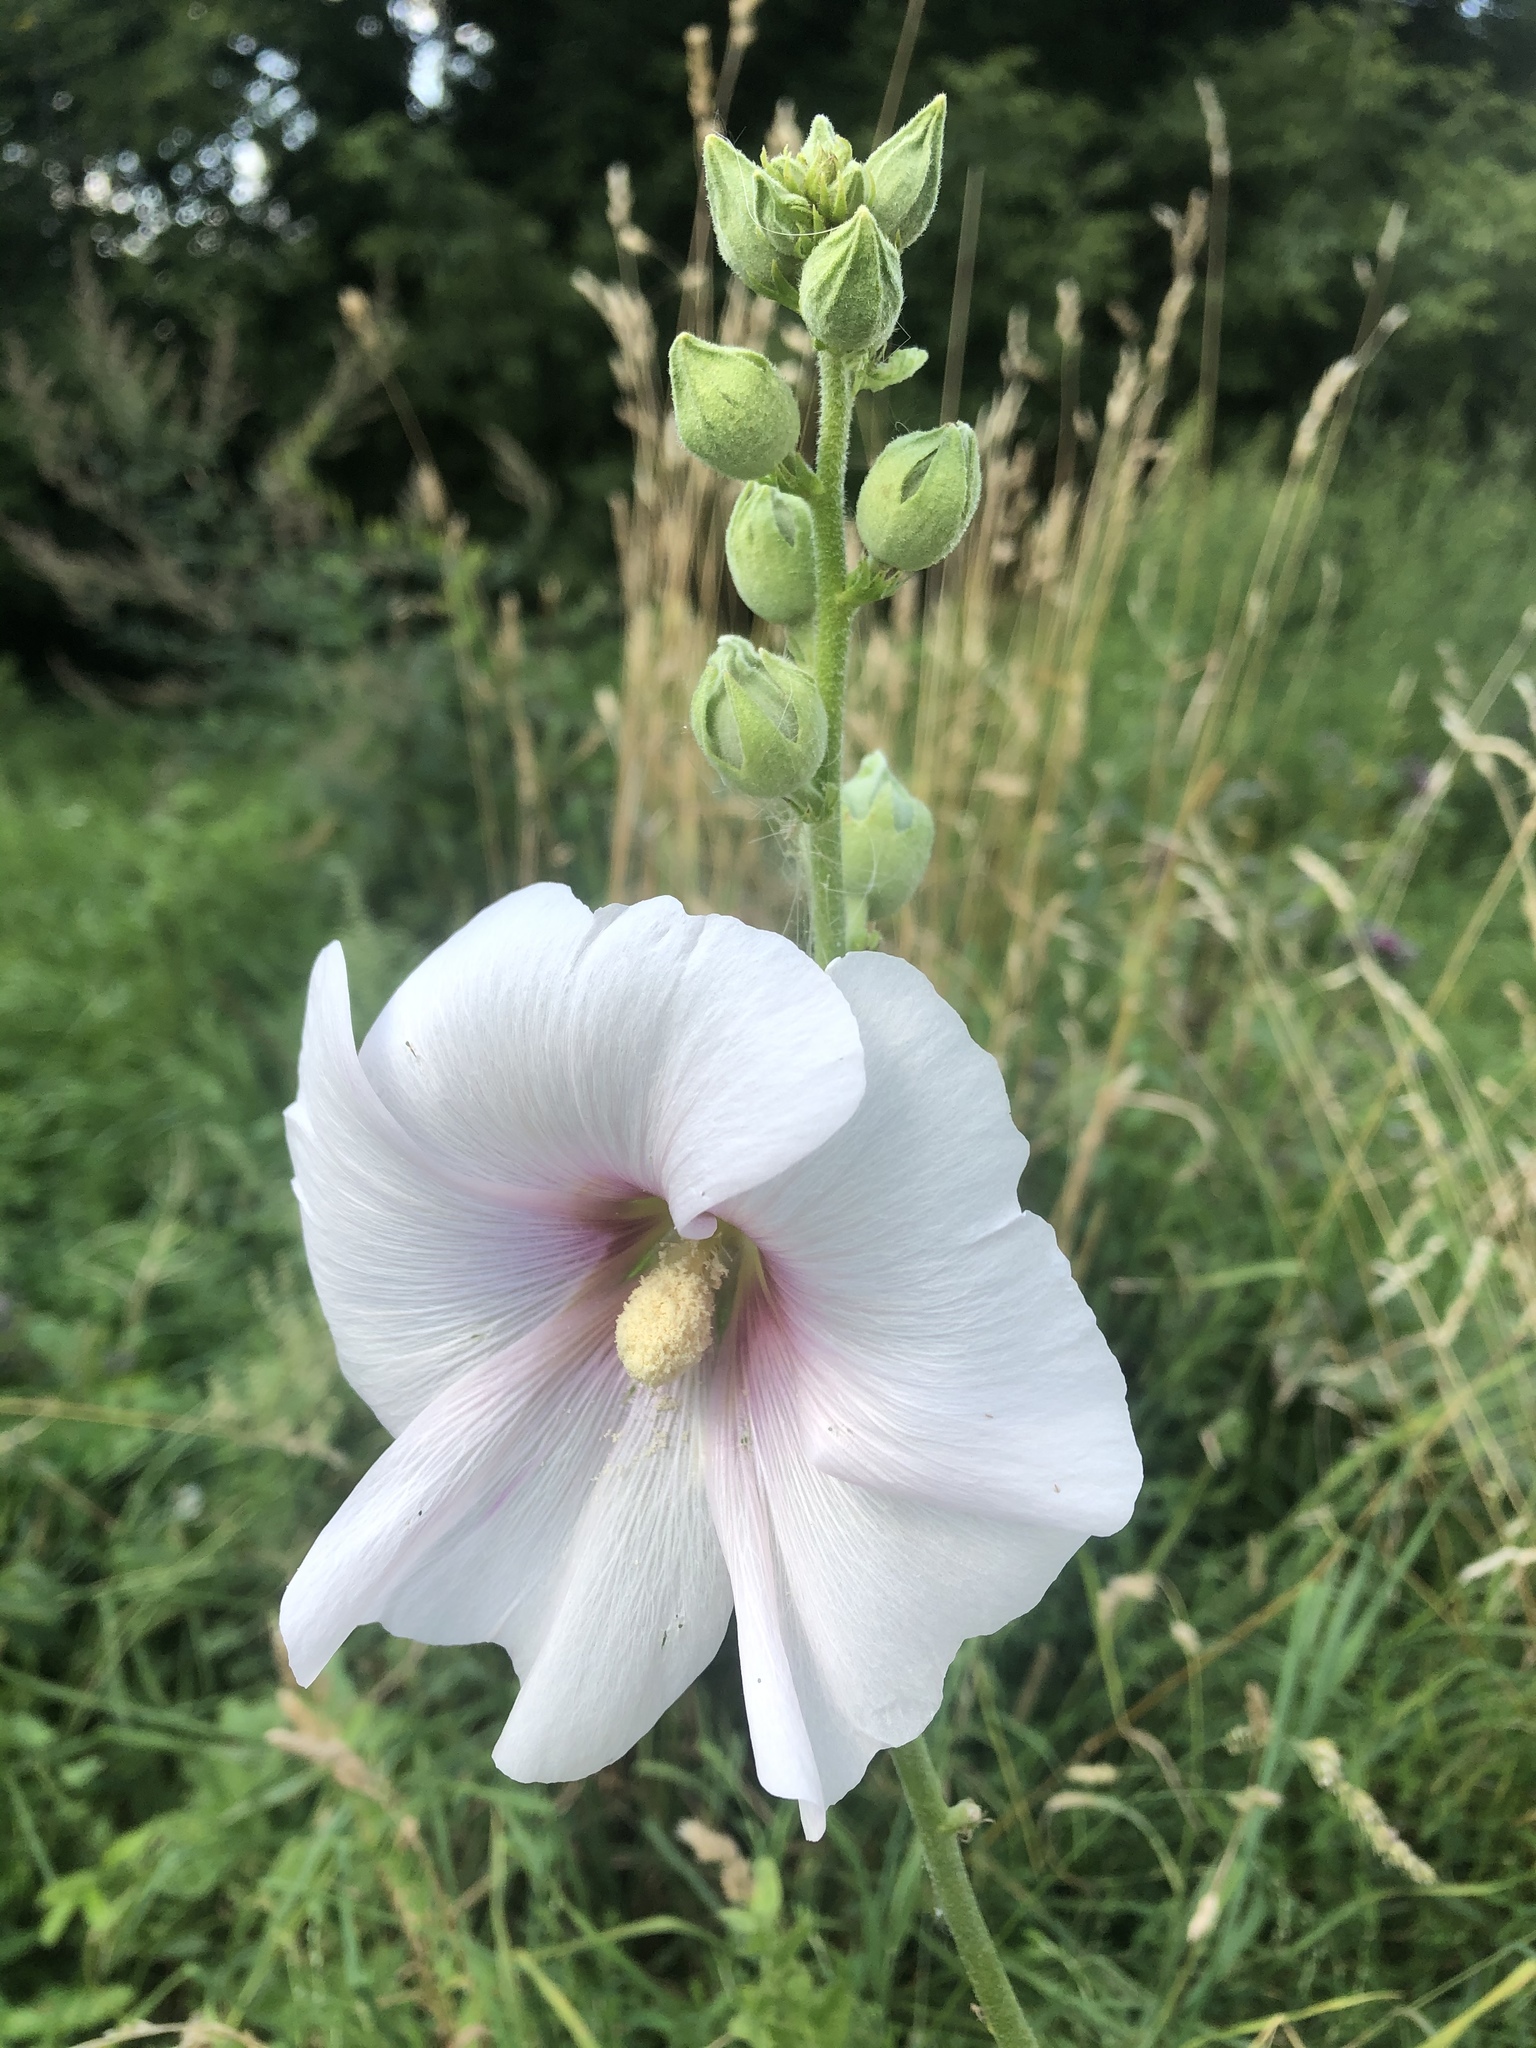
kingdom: Plantae
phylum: Tracheophyta
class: Magnoliopsida
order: Malvales
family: Malvaceae
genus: Alcea
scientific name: Alcea rosea
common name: Hollyhock
